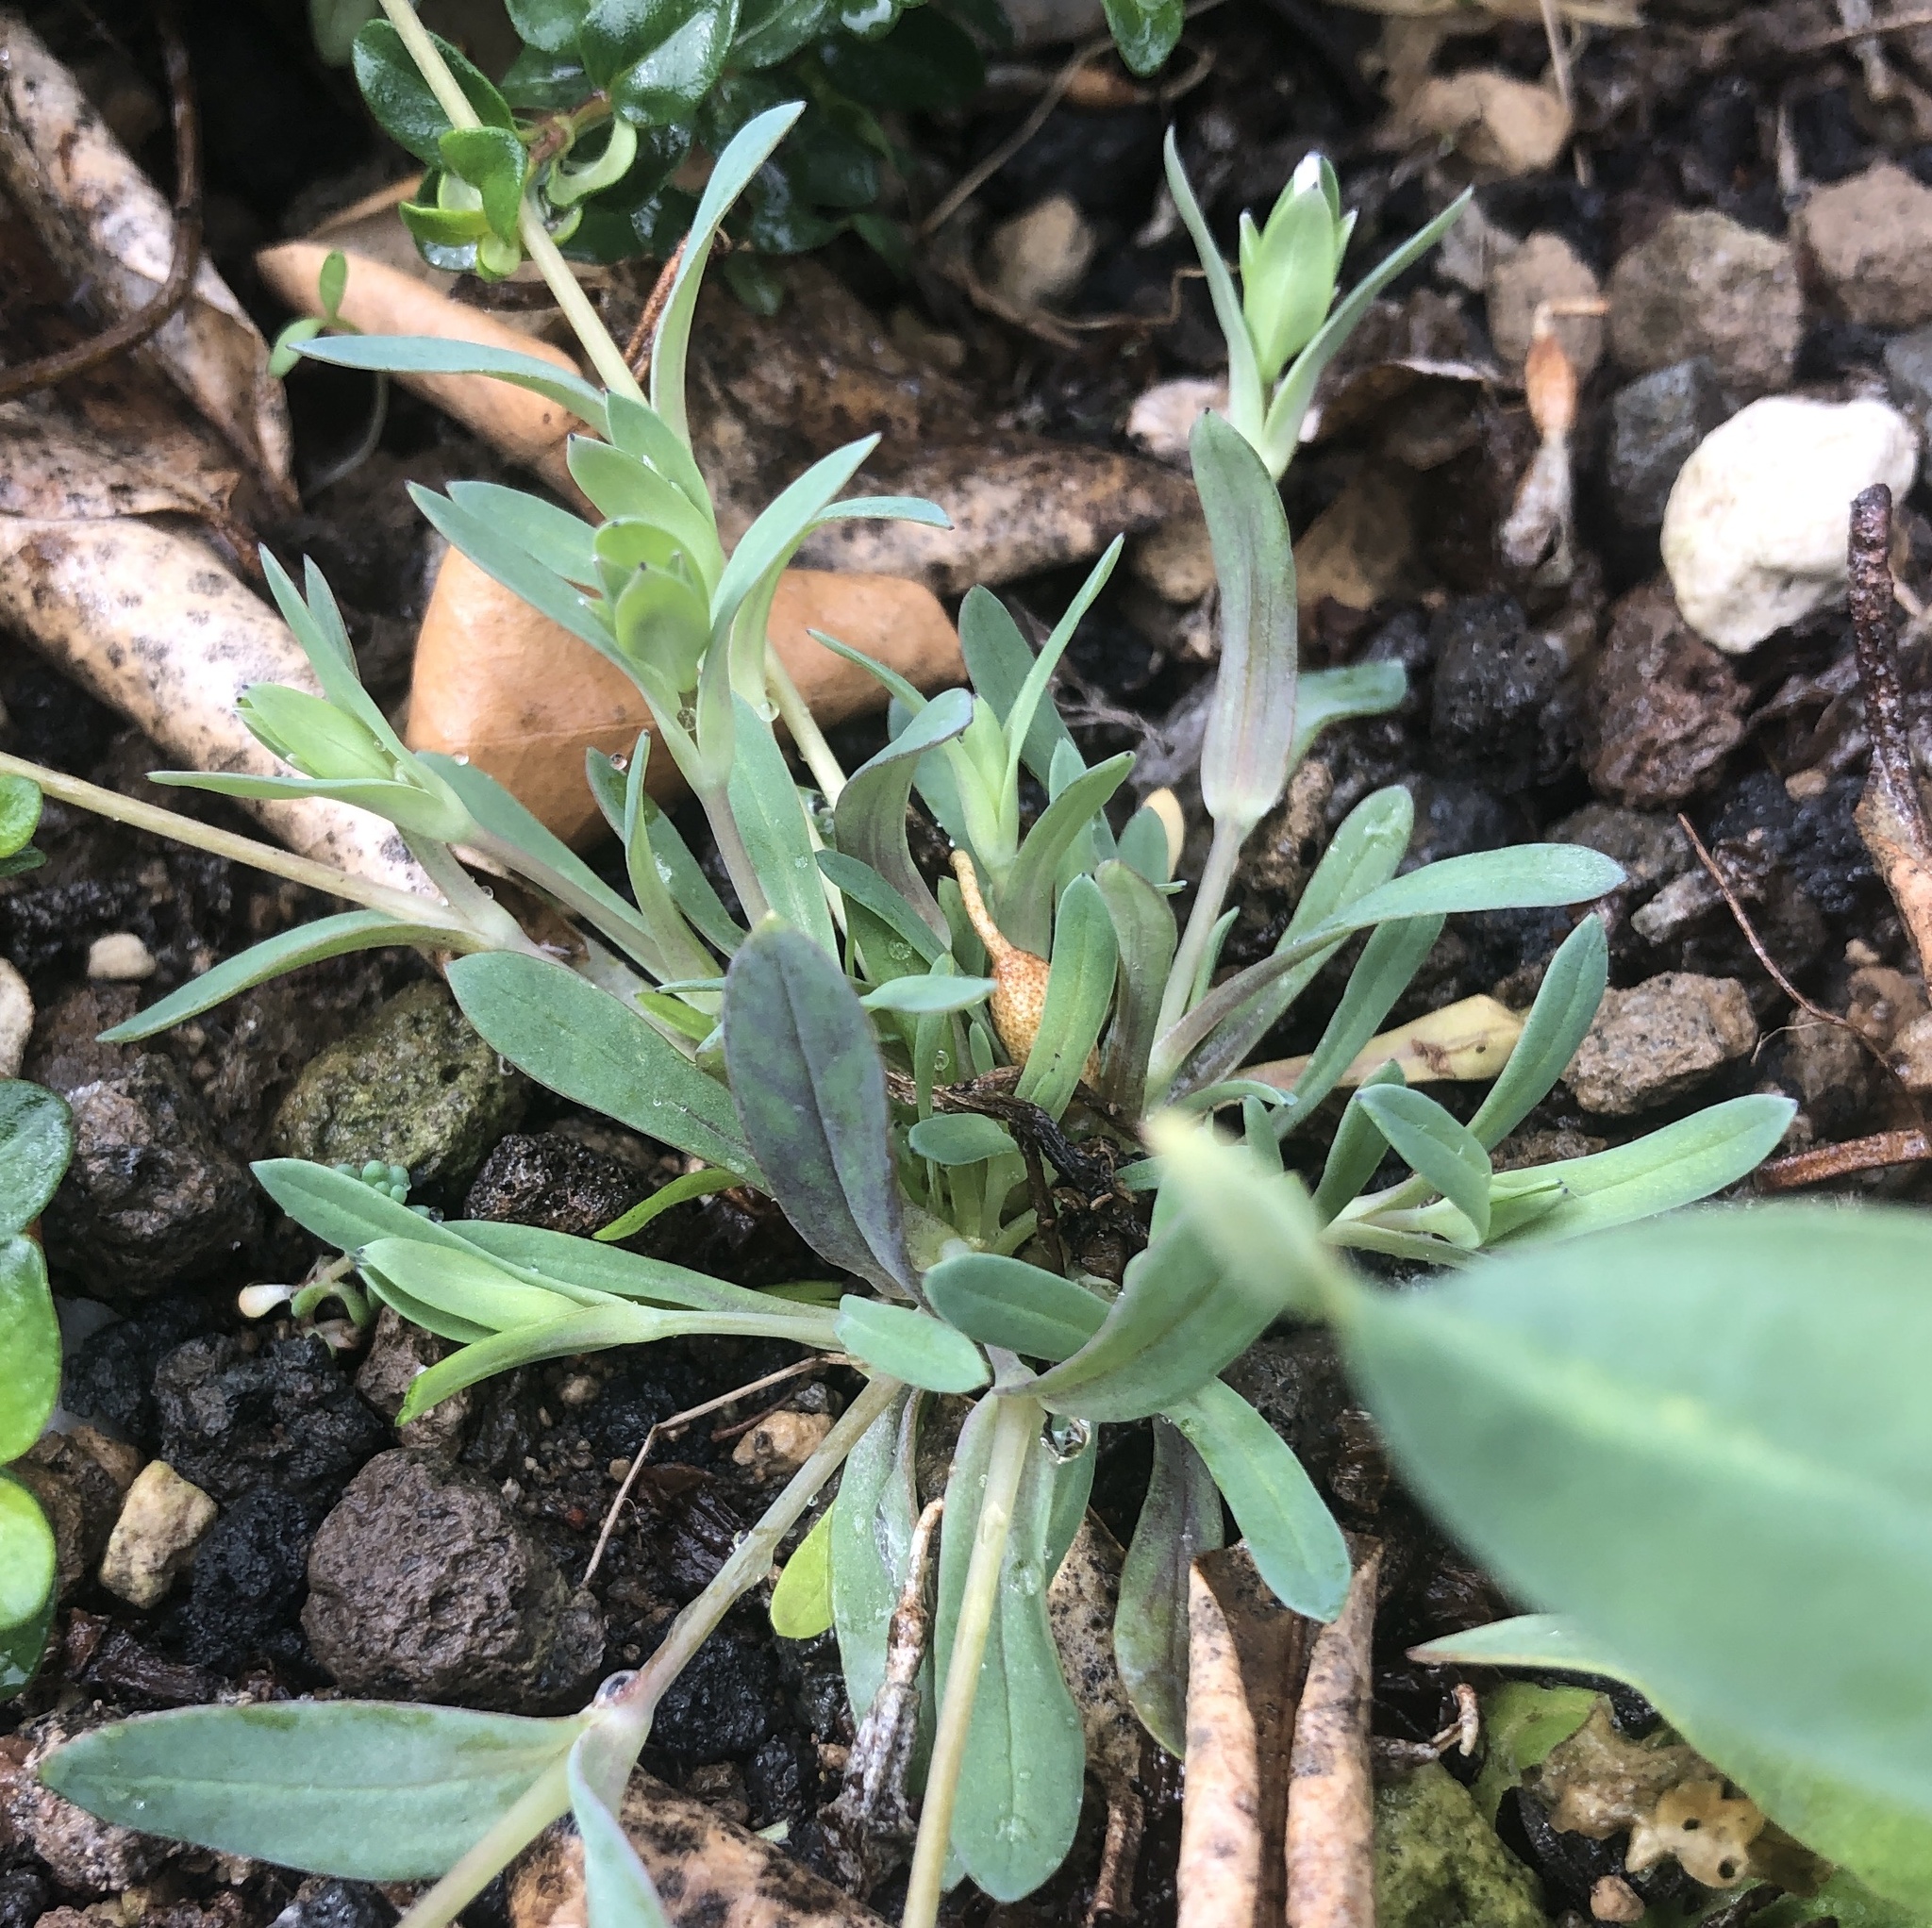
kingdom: Plantae
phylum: Tracheophyta
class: Magnoliopsida
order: Caryophyllales
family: Caryophyllaceae
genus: Holosteum
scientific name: Holosteum umbellatum
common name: Jagged chickweed
